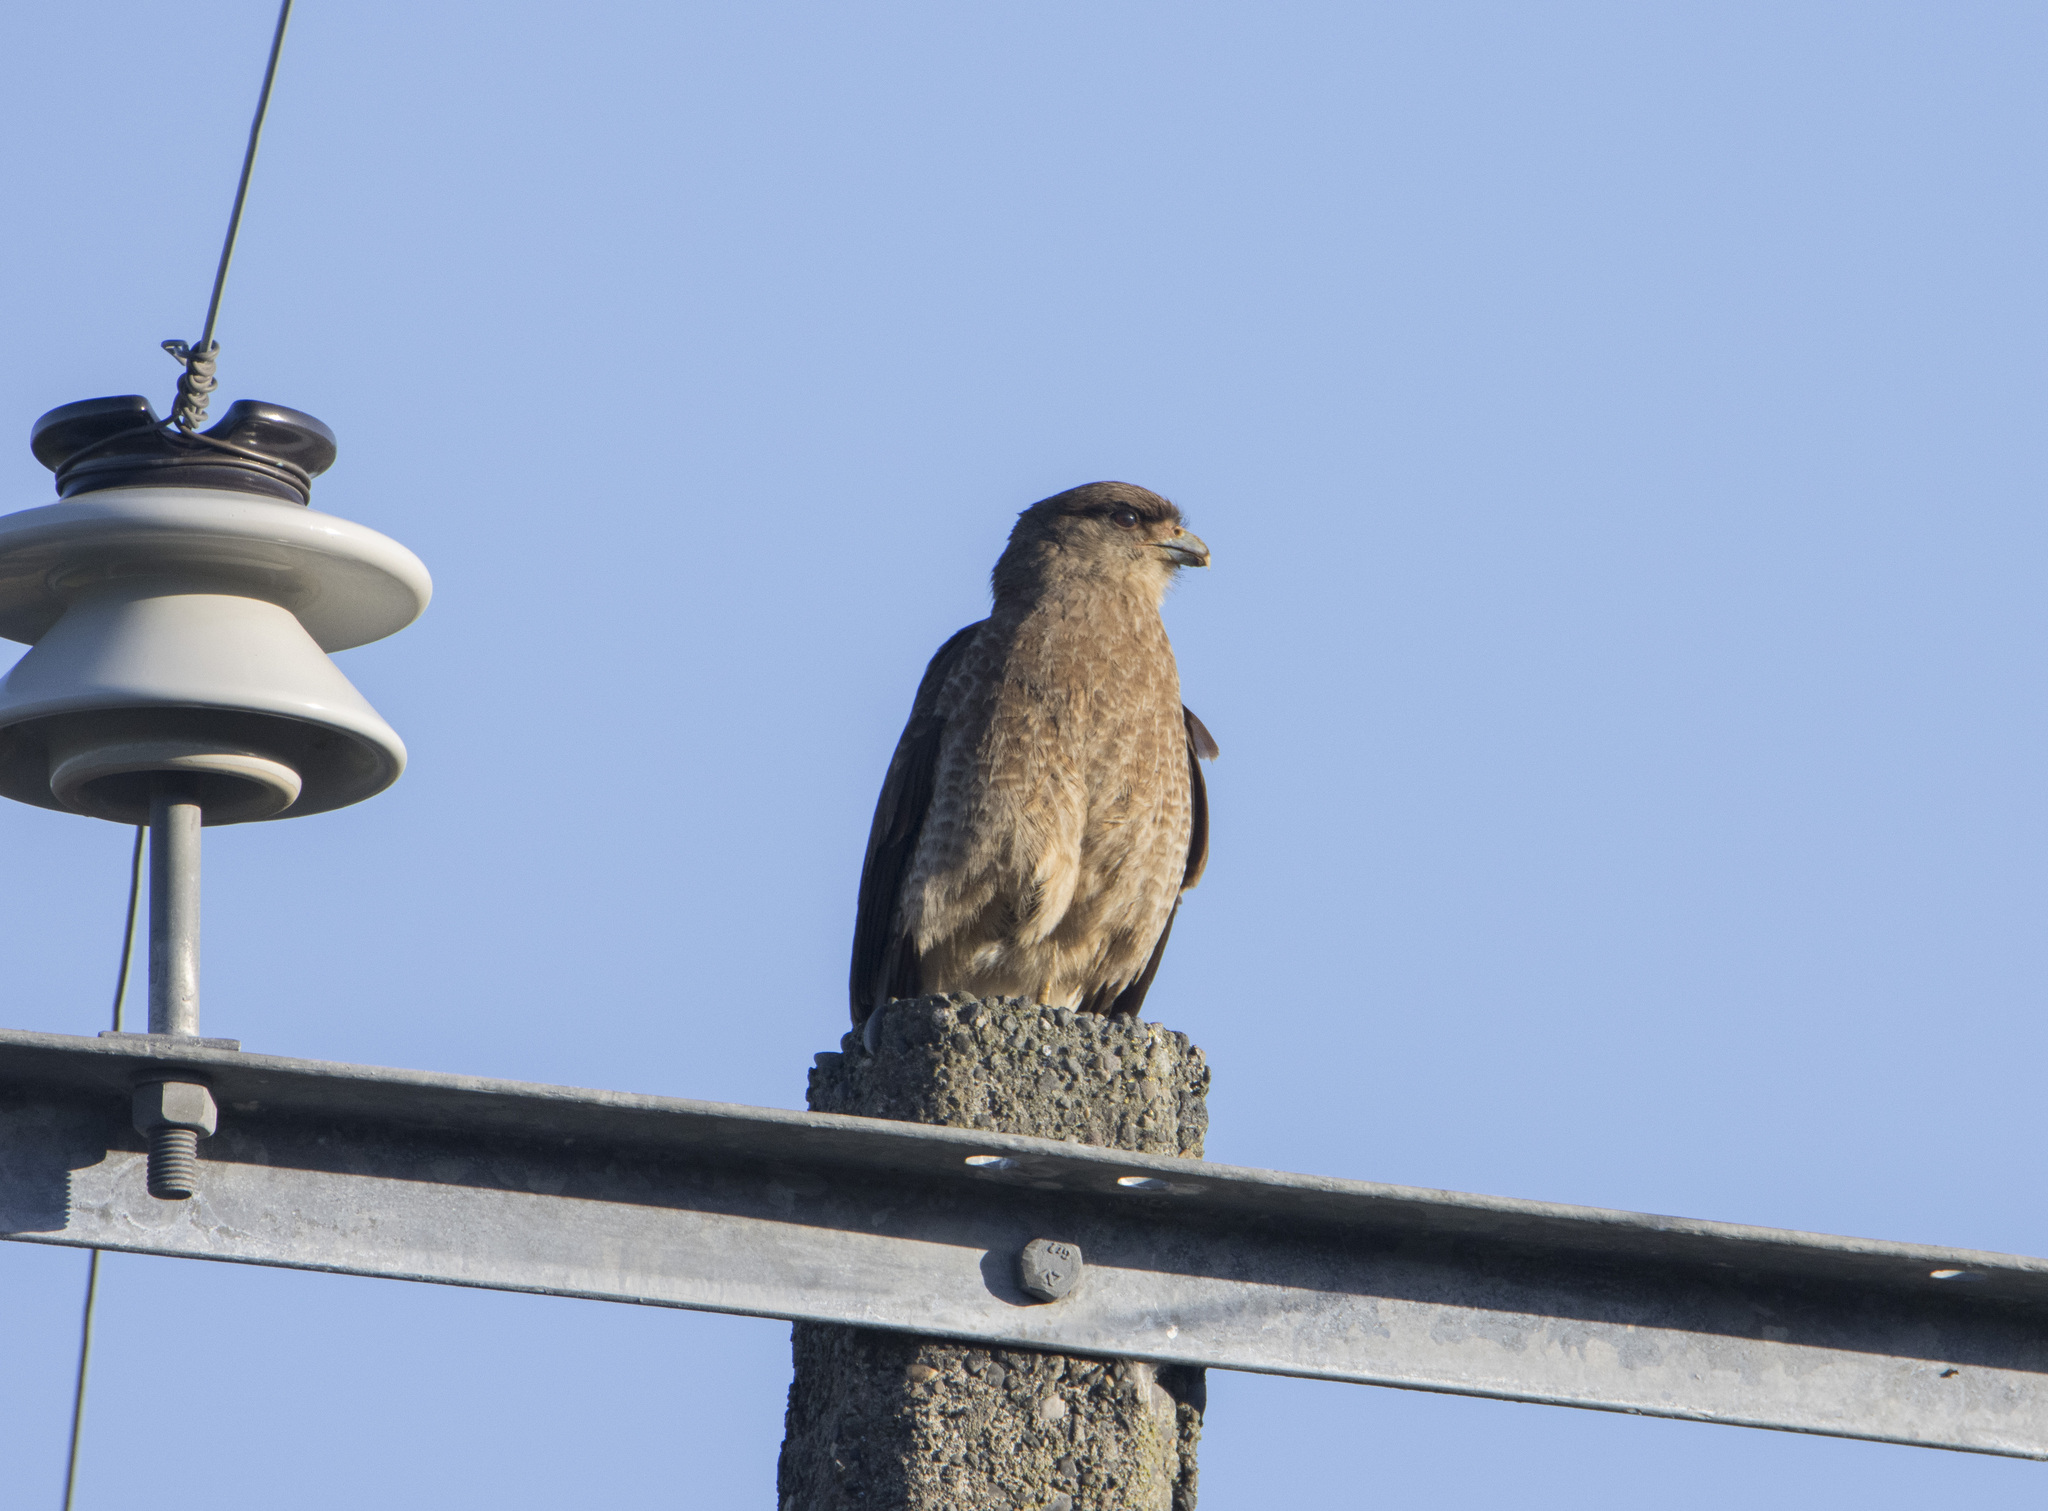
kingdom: Animalia
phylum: Chordata
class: Aves
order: Falconiformes
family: Falconidae
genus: Daptrius
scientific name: Daptrius
